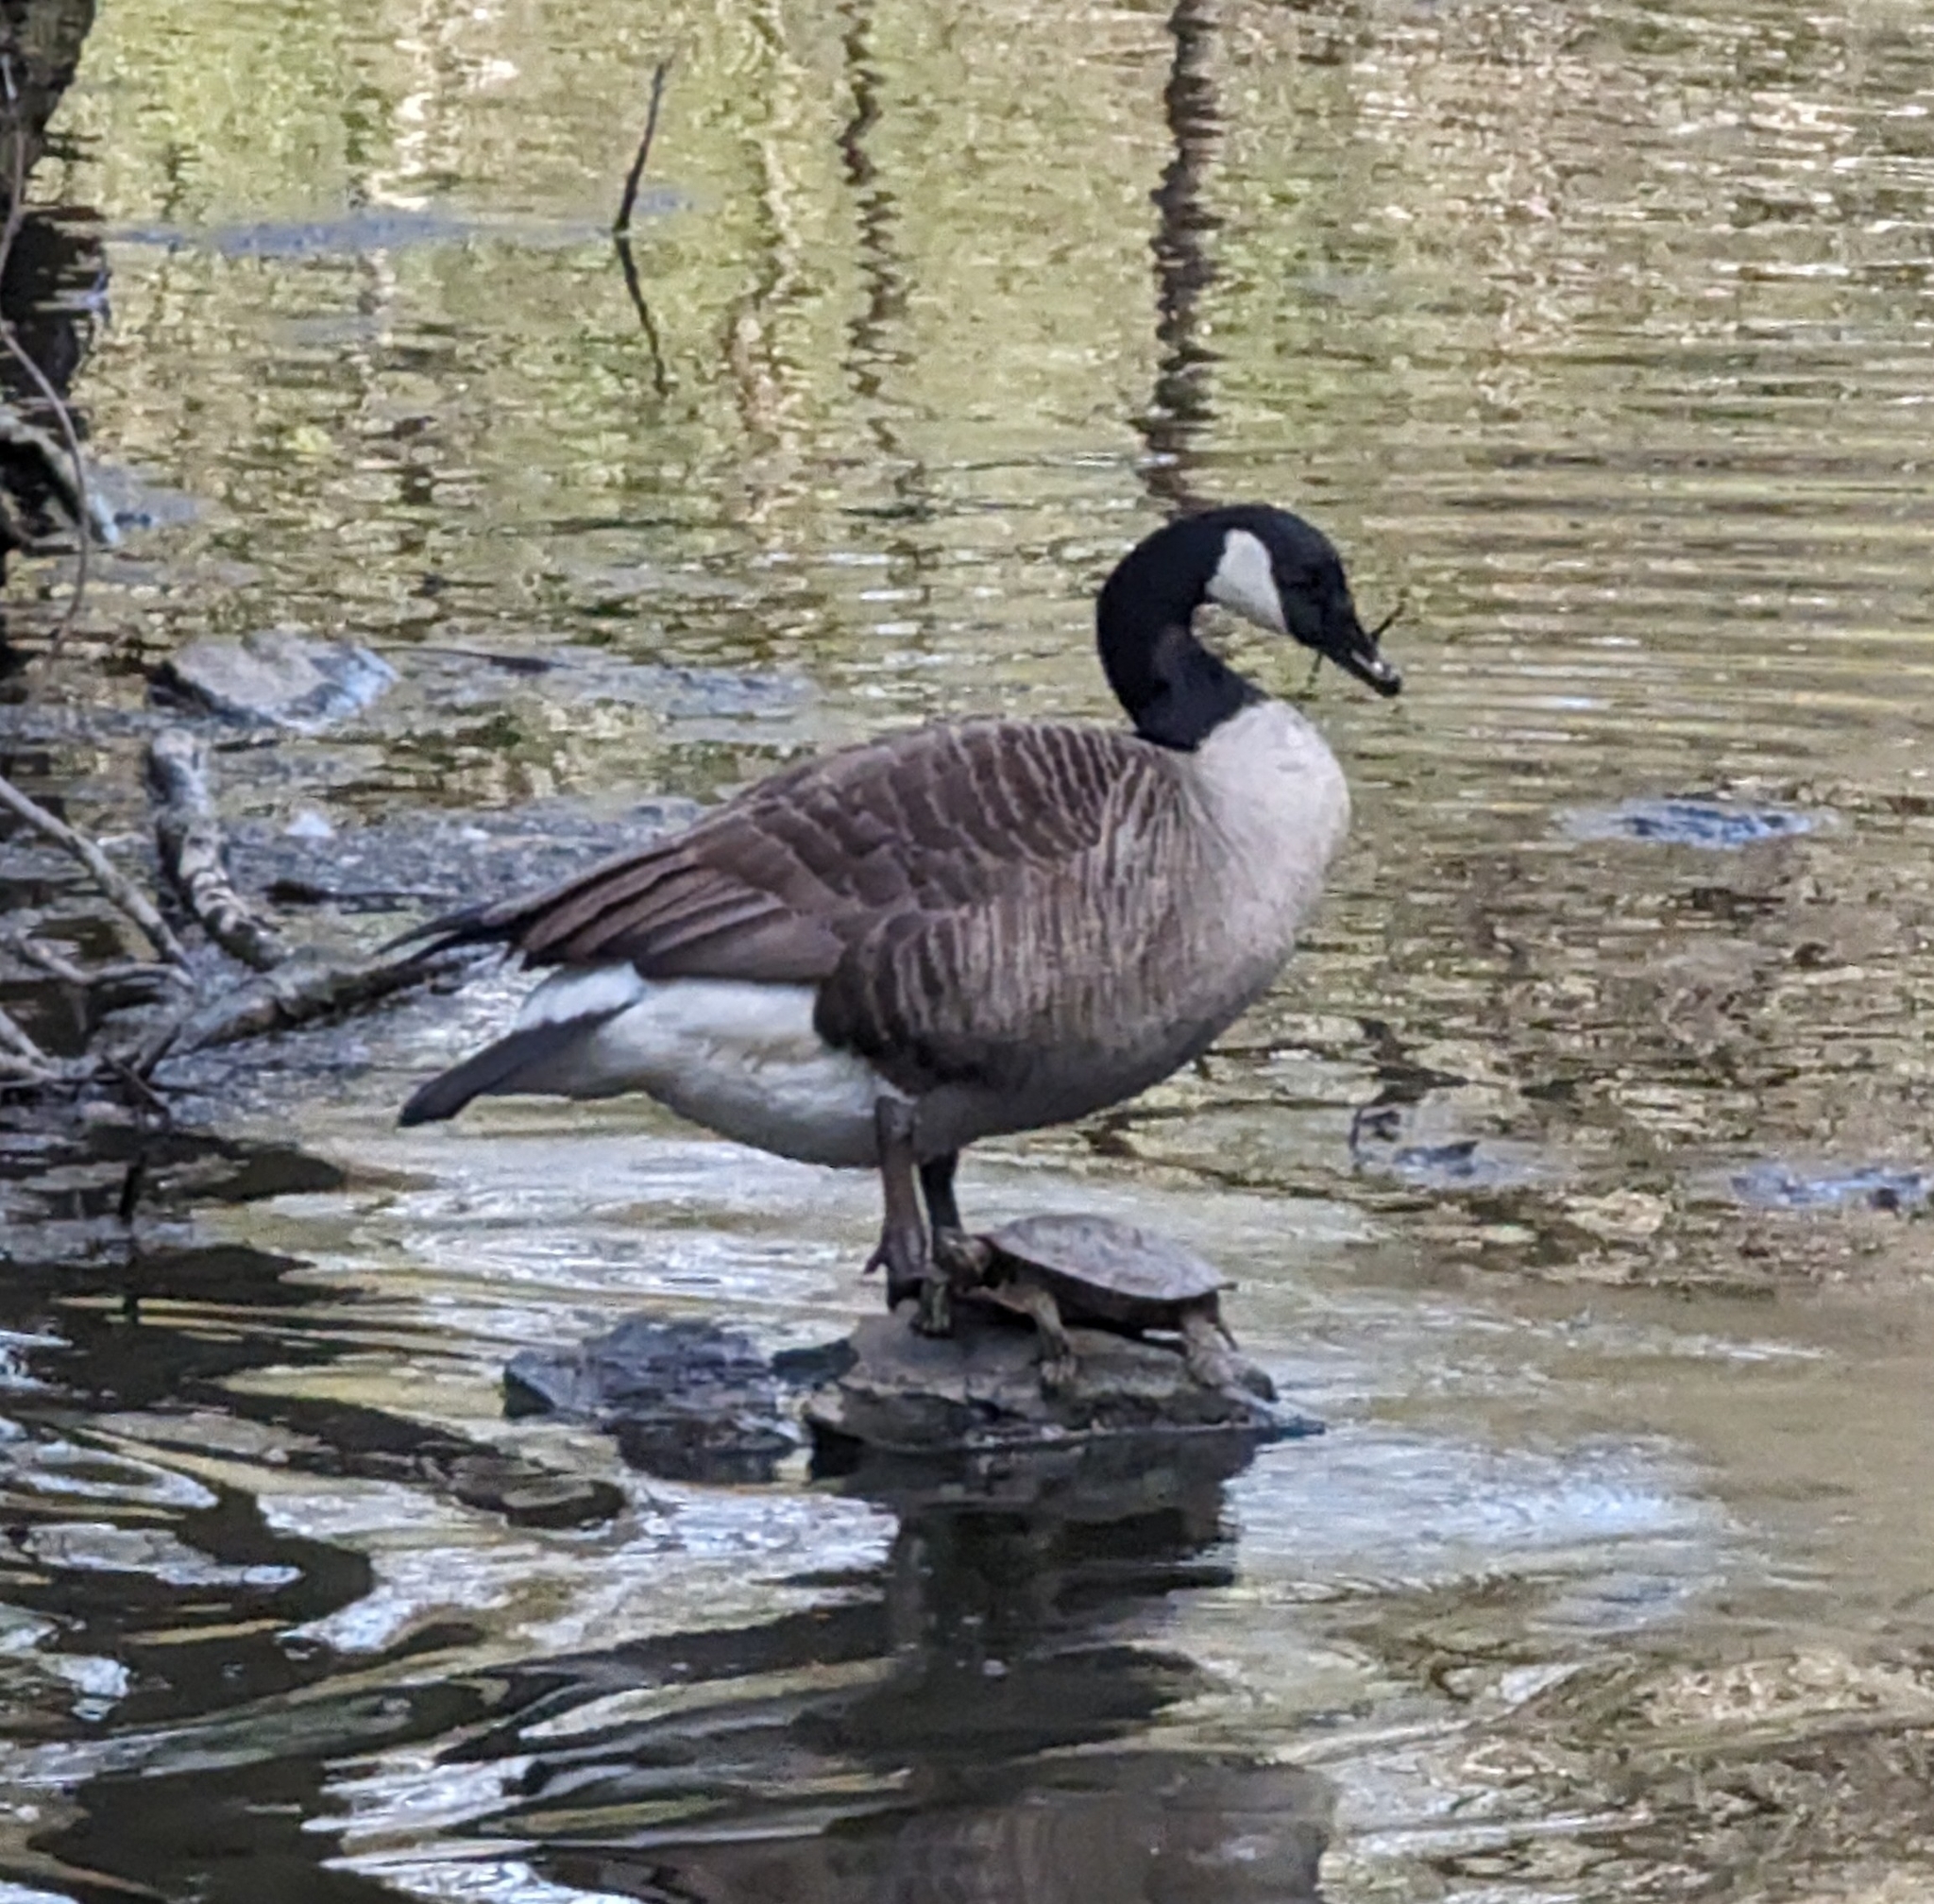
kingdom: Animalia
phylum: Chordata
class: Aves
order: Anseriformes
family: Anatidae
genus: Branta
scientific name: Branta canadensis
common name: Canada goose
